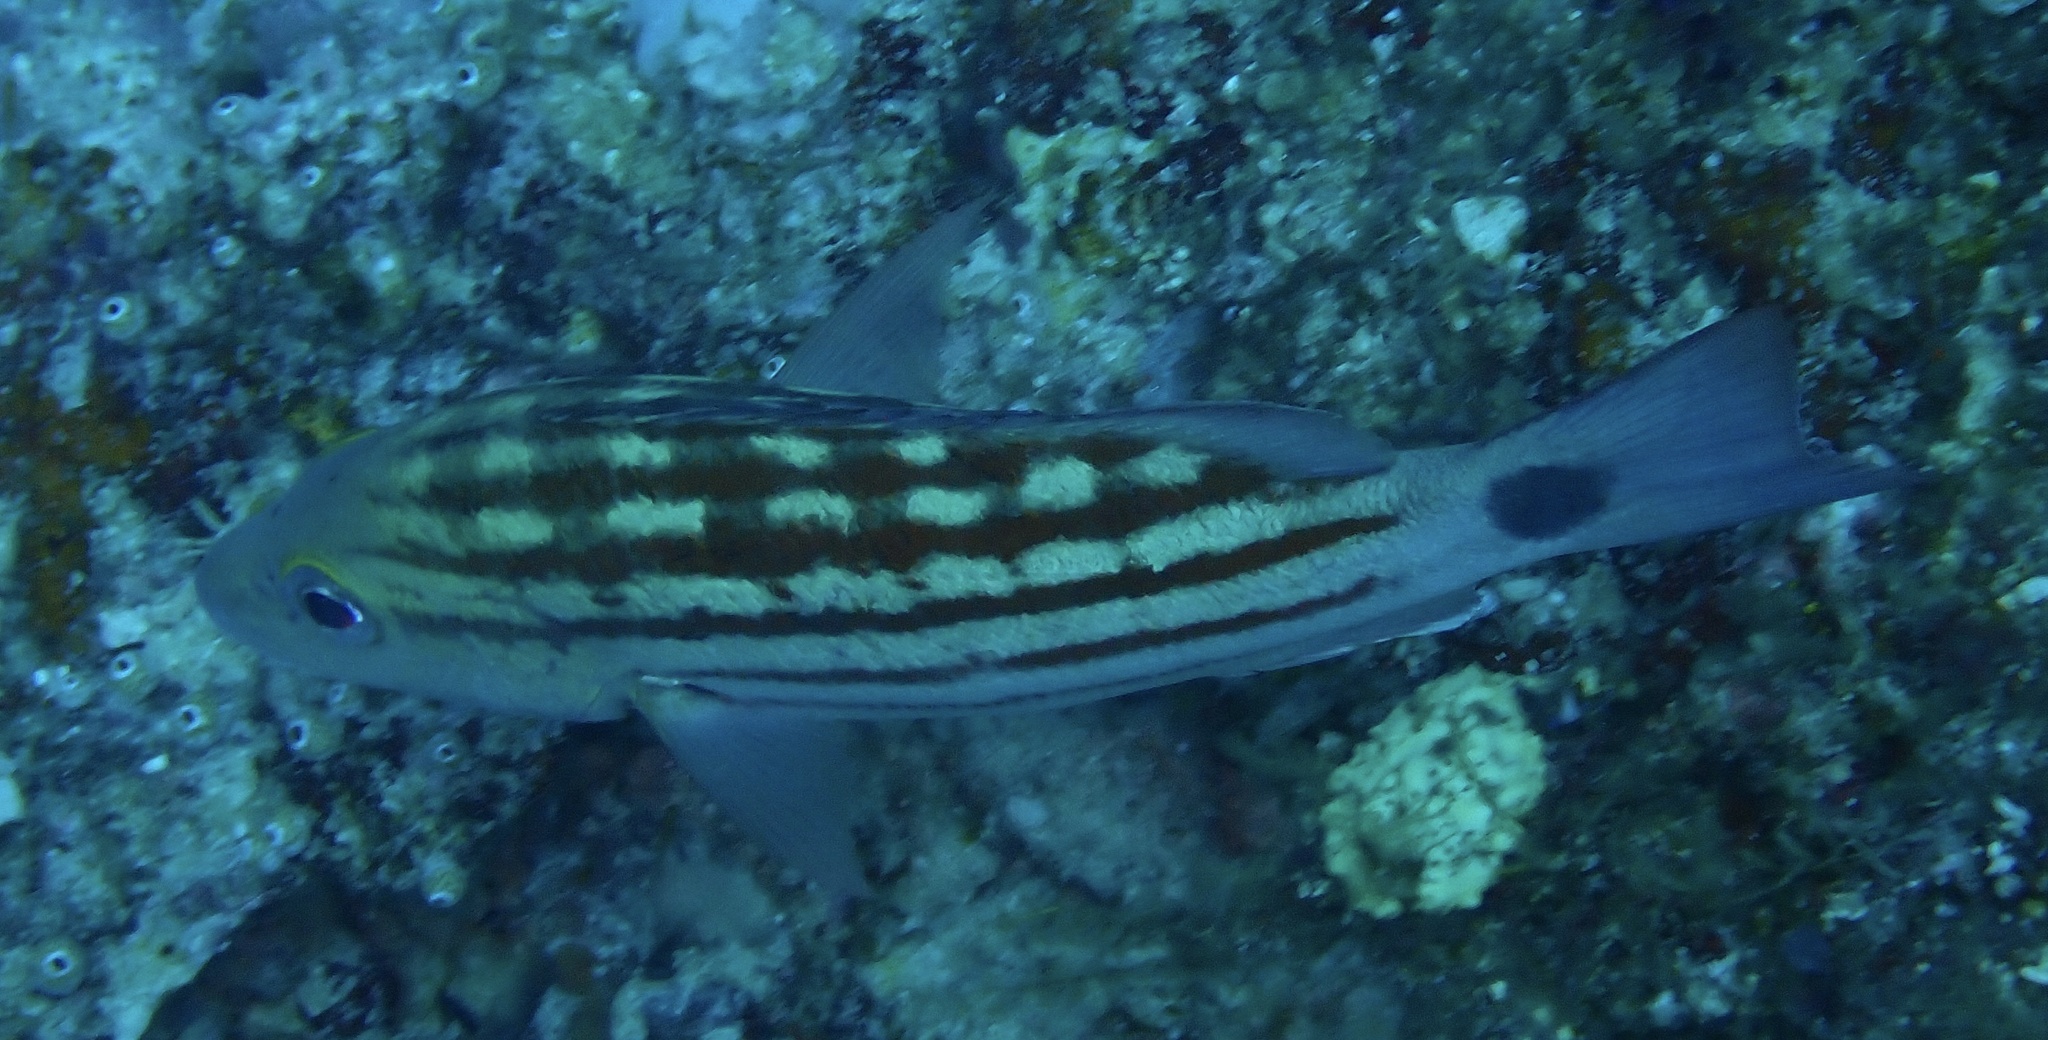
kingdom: Animalia
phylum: Chordata
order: Perciformes
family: Lutjanidae
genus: Lutjanus
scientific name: Lutjanus decussatus
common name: Checkered snapper
